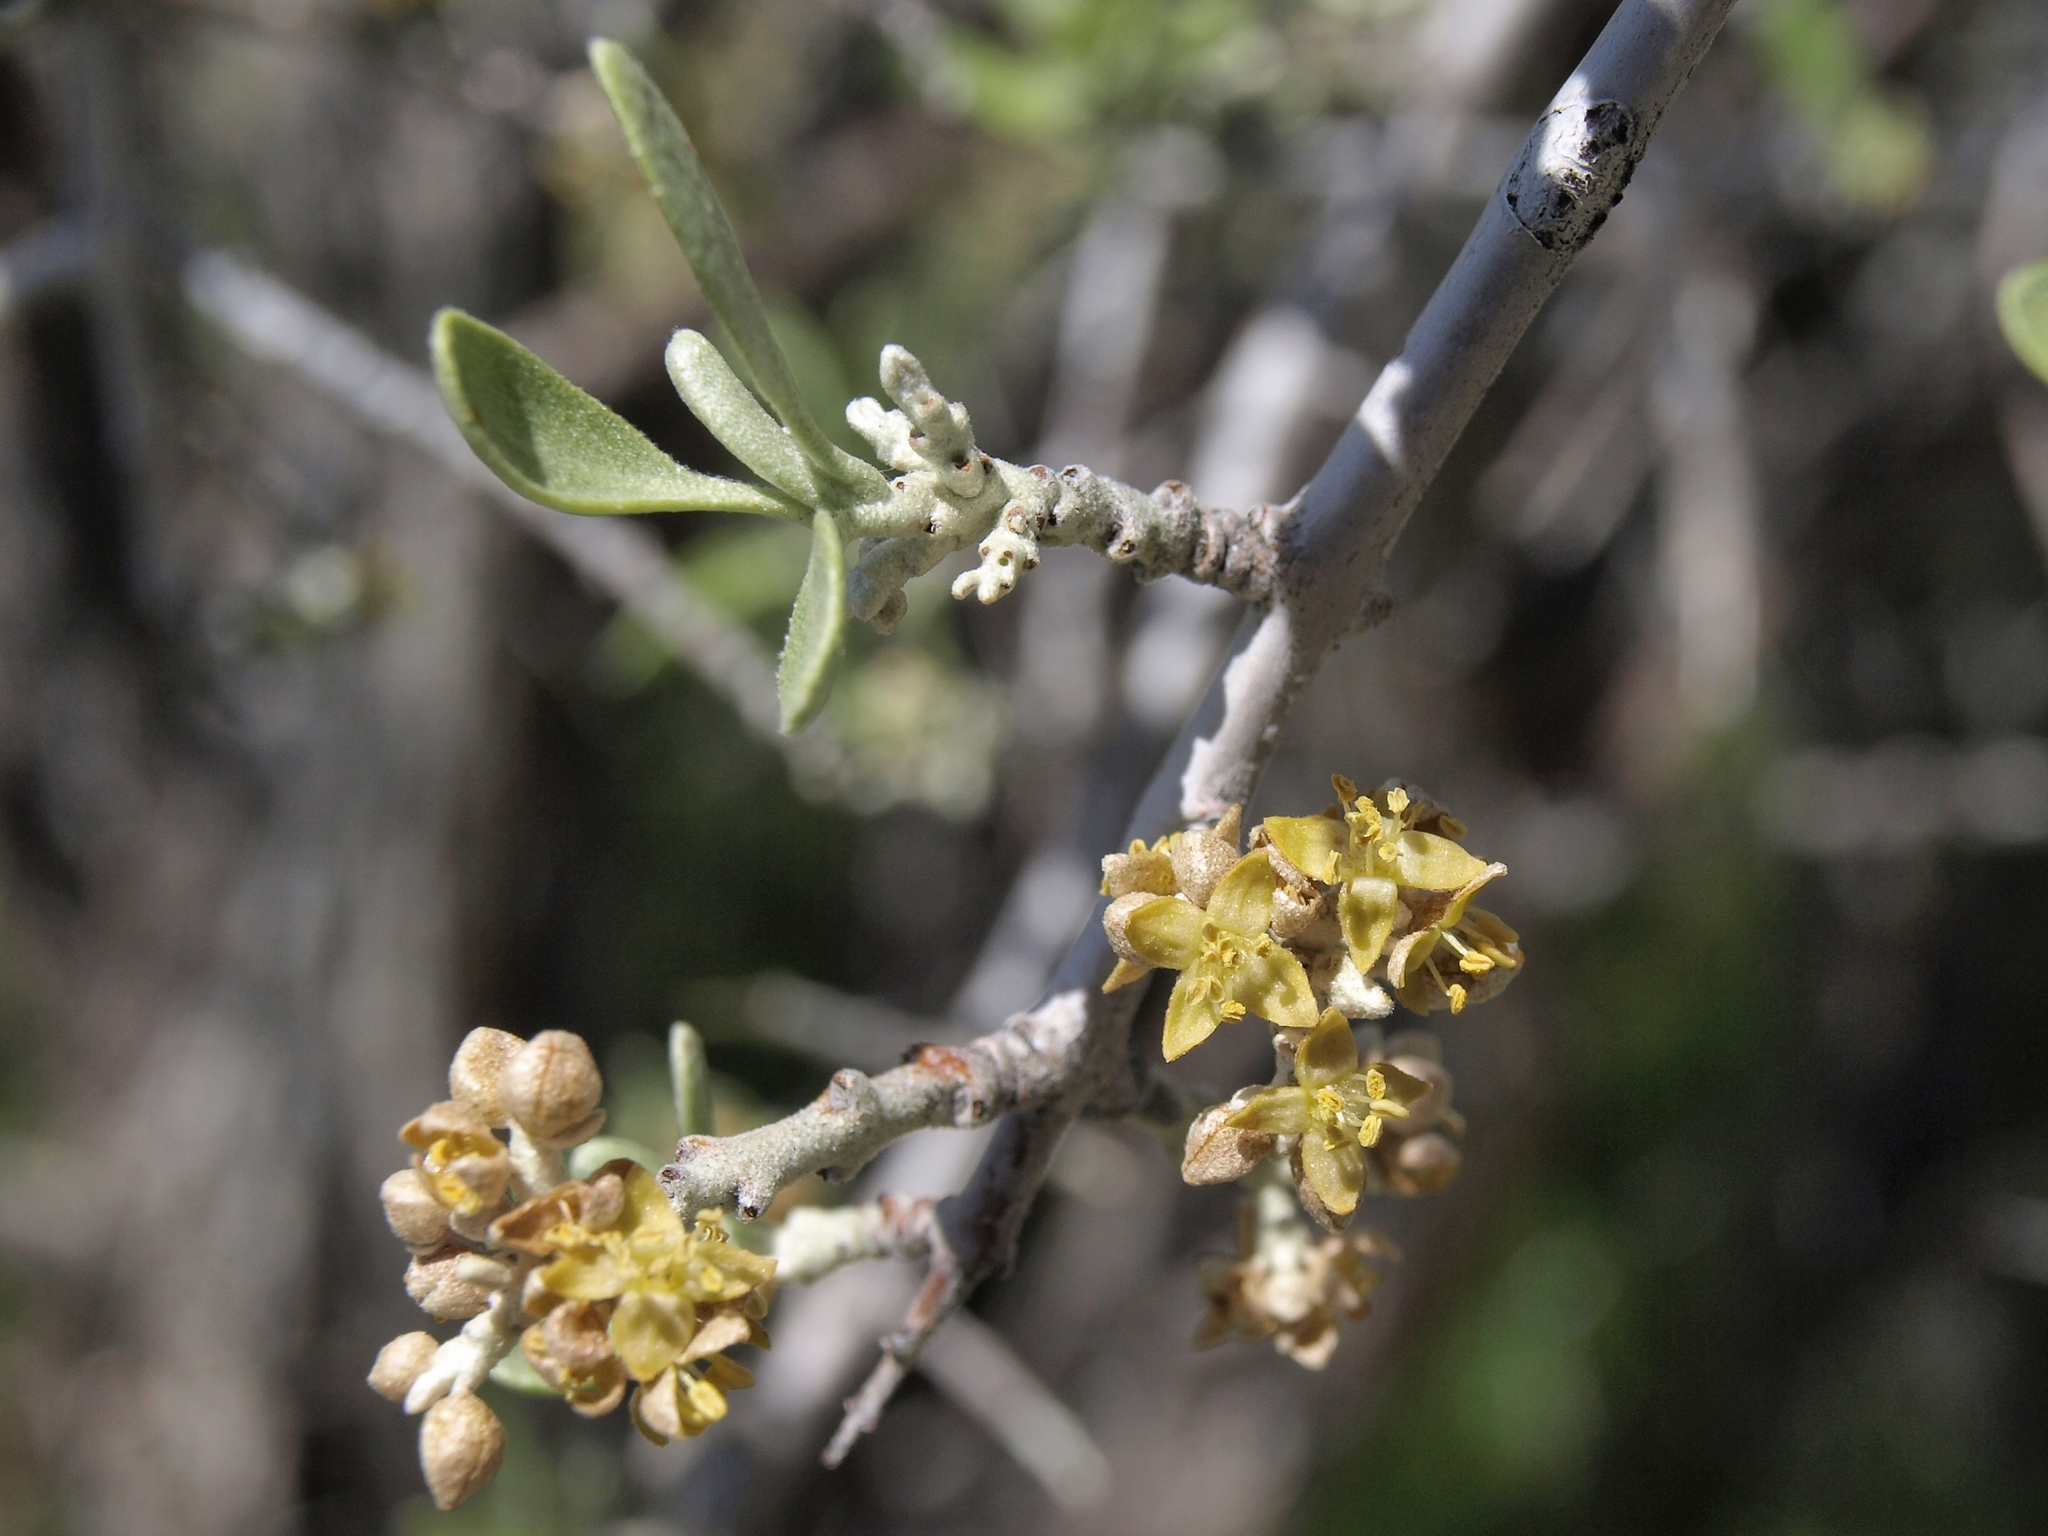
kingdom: Plantae
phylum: Tracheophyta
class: Magnoliopsida
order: Rosales
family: Elaeagnaceae
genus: Shepherdia
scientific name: Shepherdia argentea
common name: Silver buffaloberry
